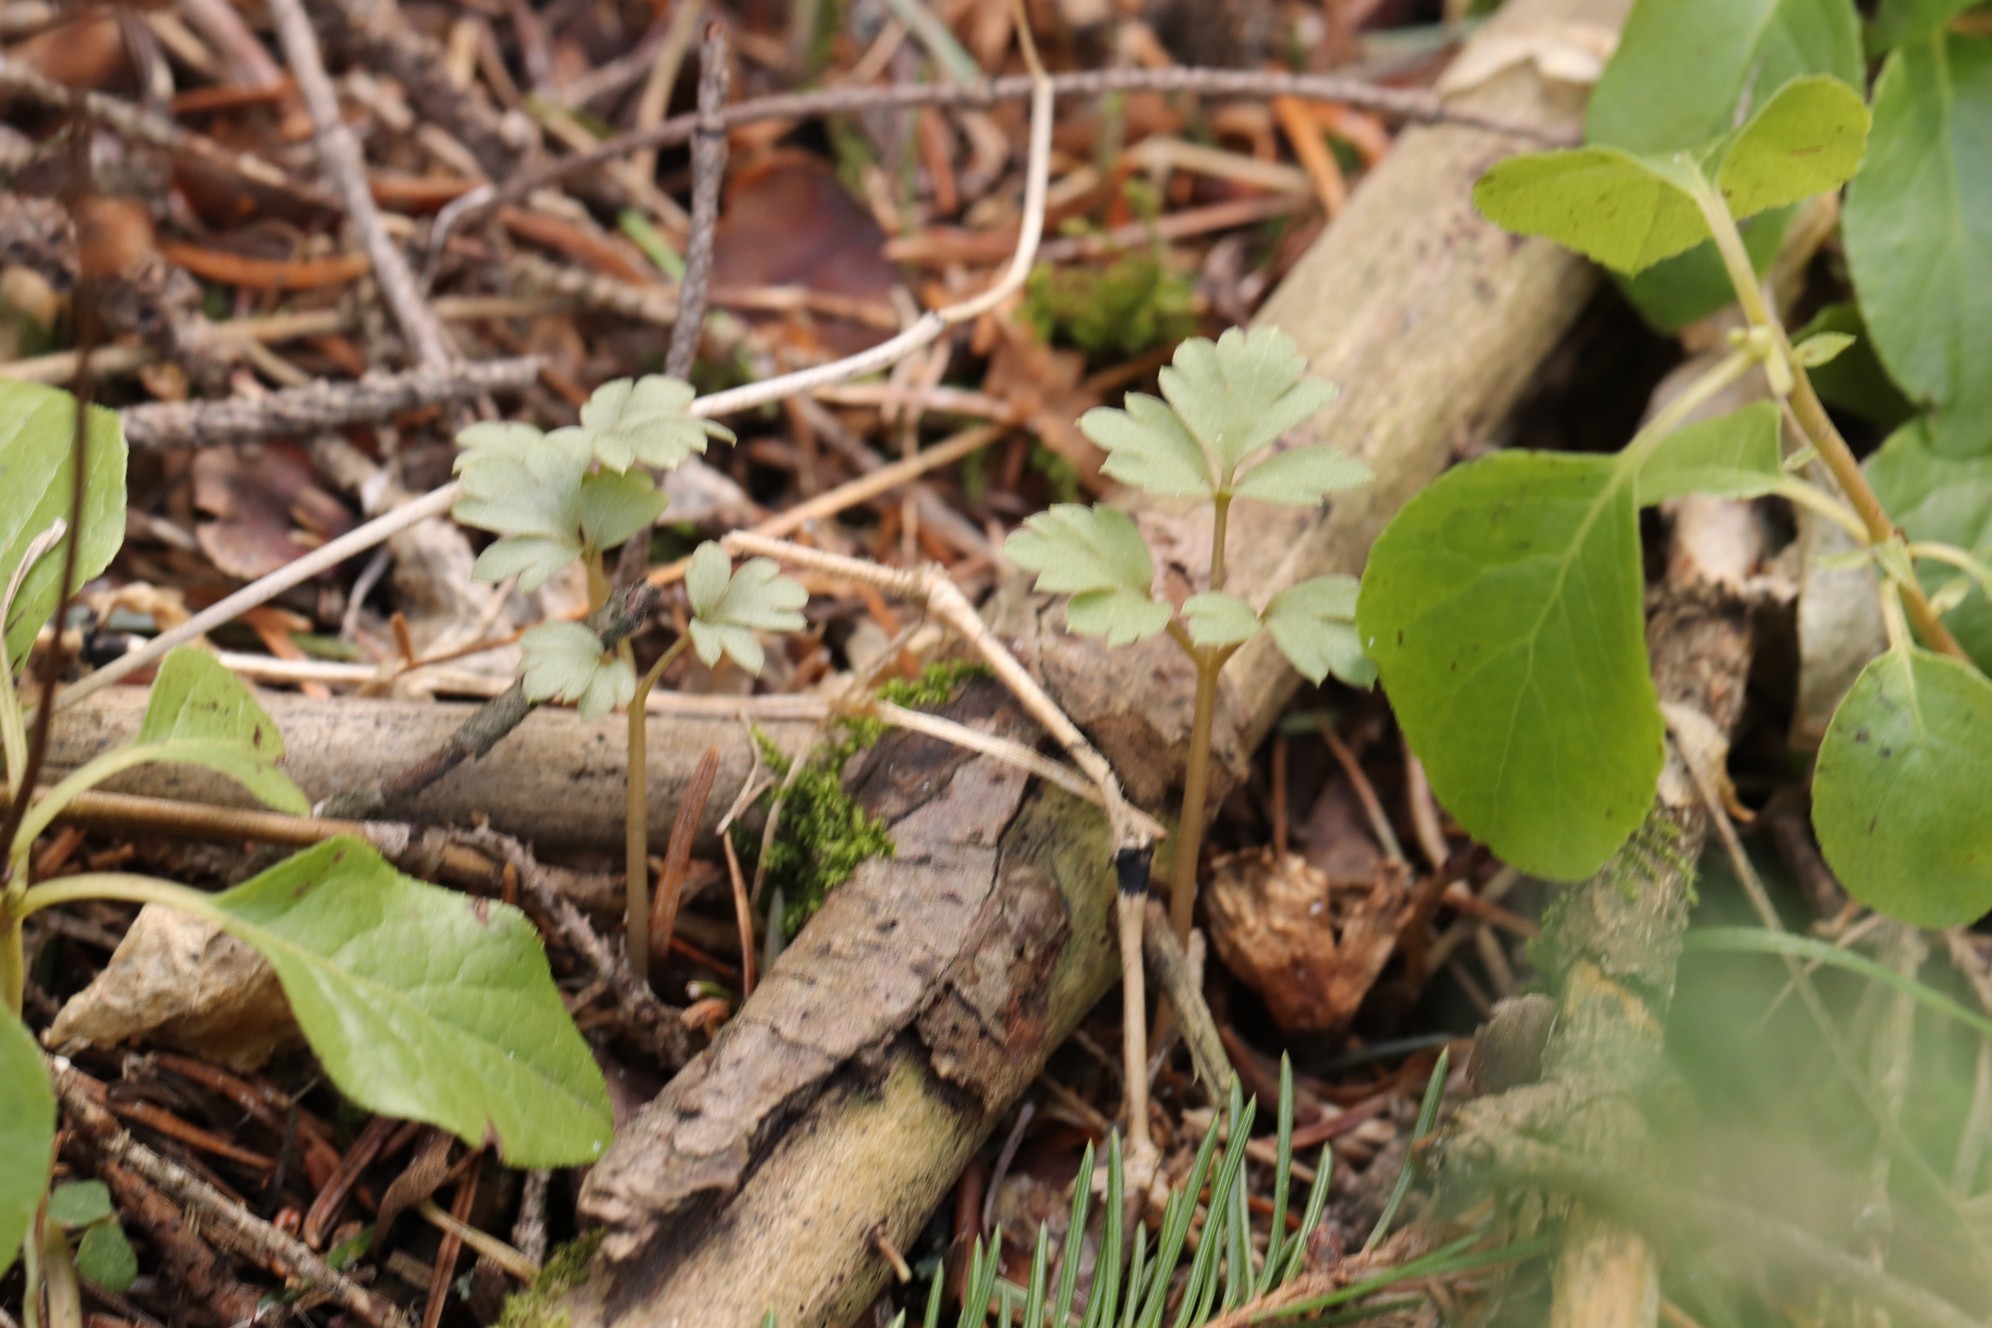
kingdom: Plantae
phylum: Tracheophyta
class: Magnoliopsida
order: Dipsacales
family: Viburnaceae
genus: Adoxa
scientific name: Adoxa moschatellina
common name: Moschatel
